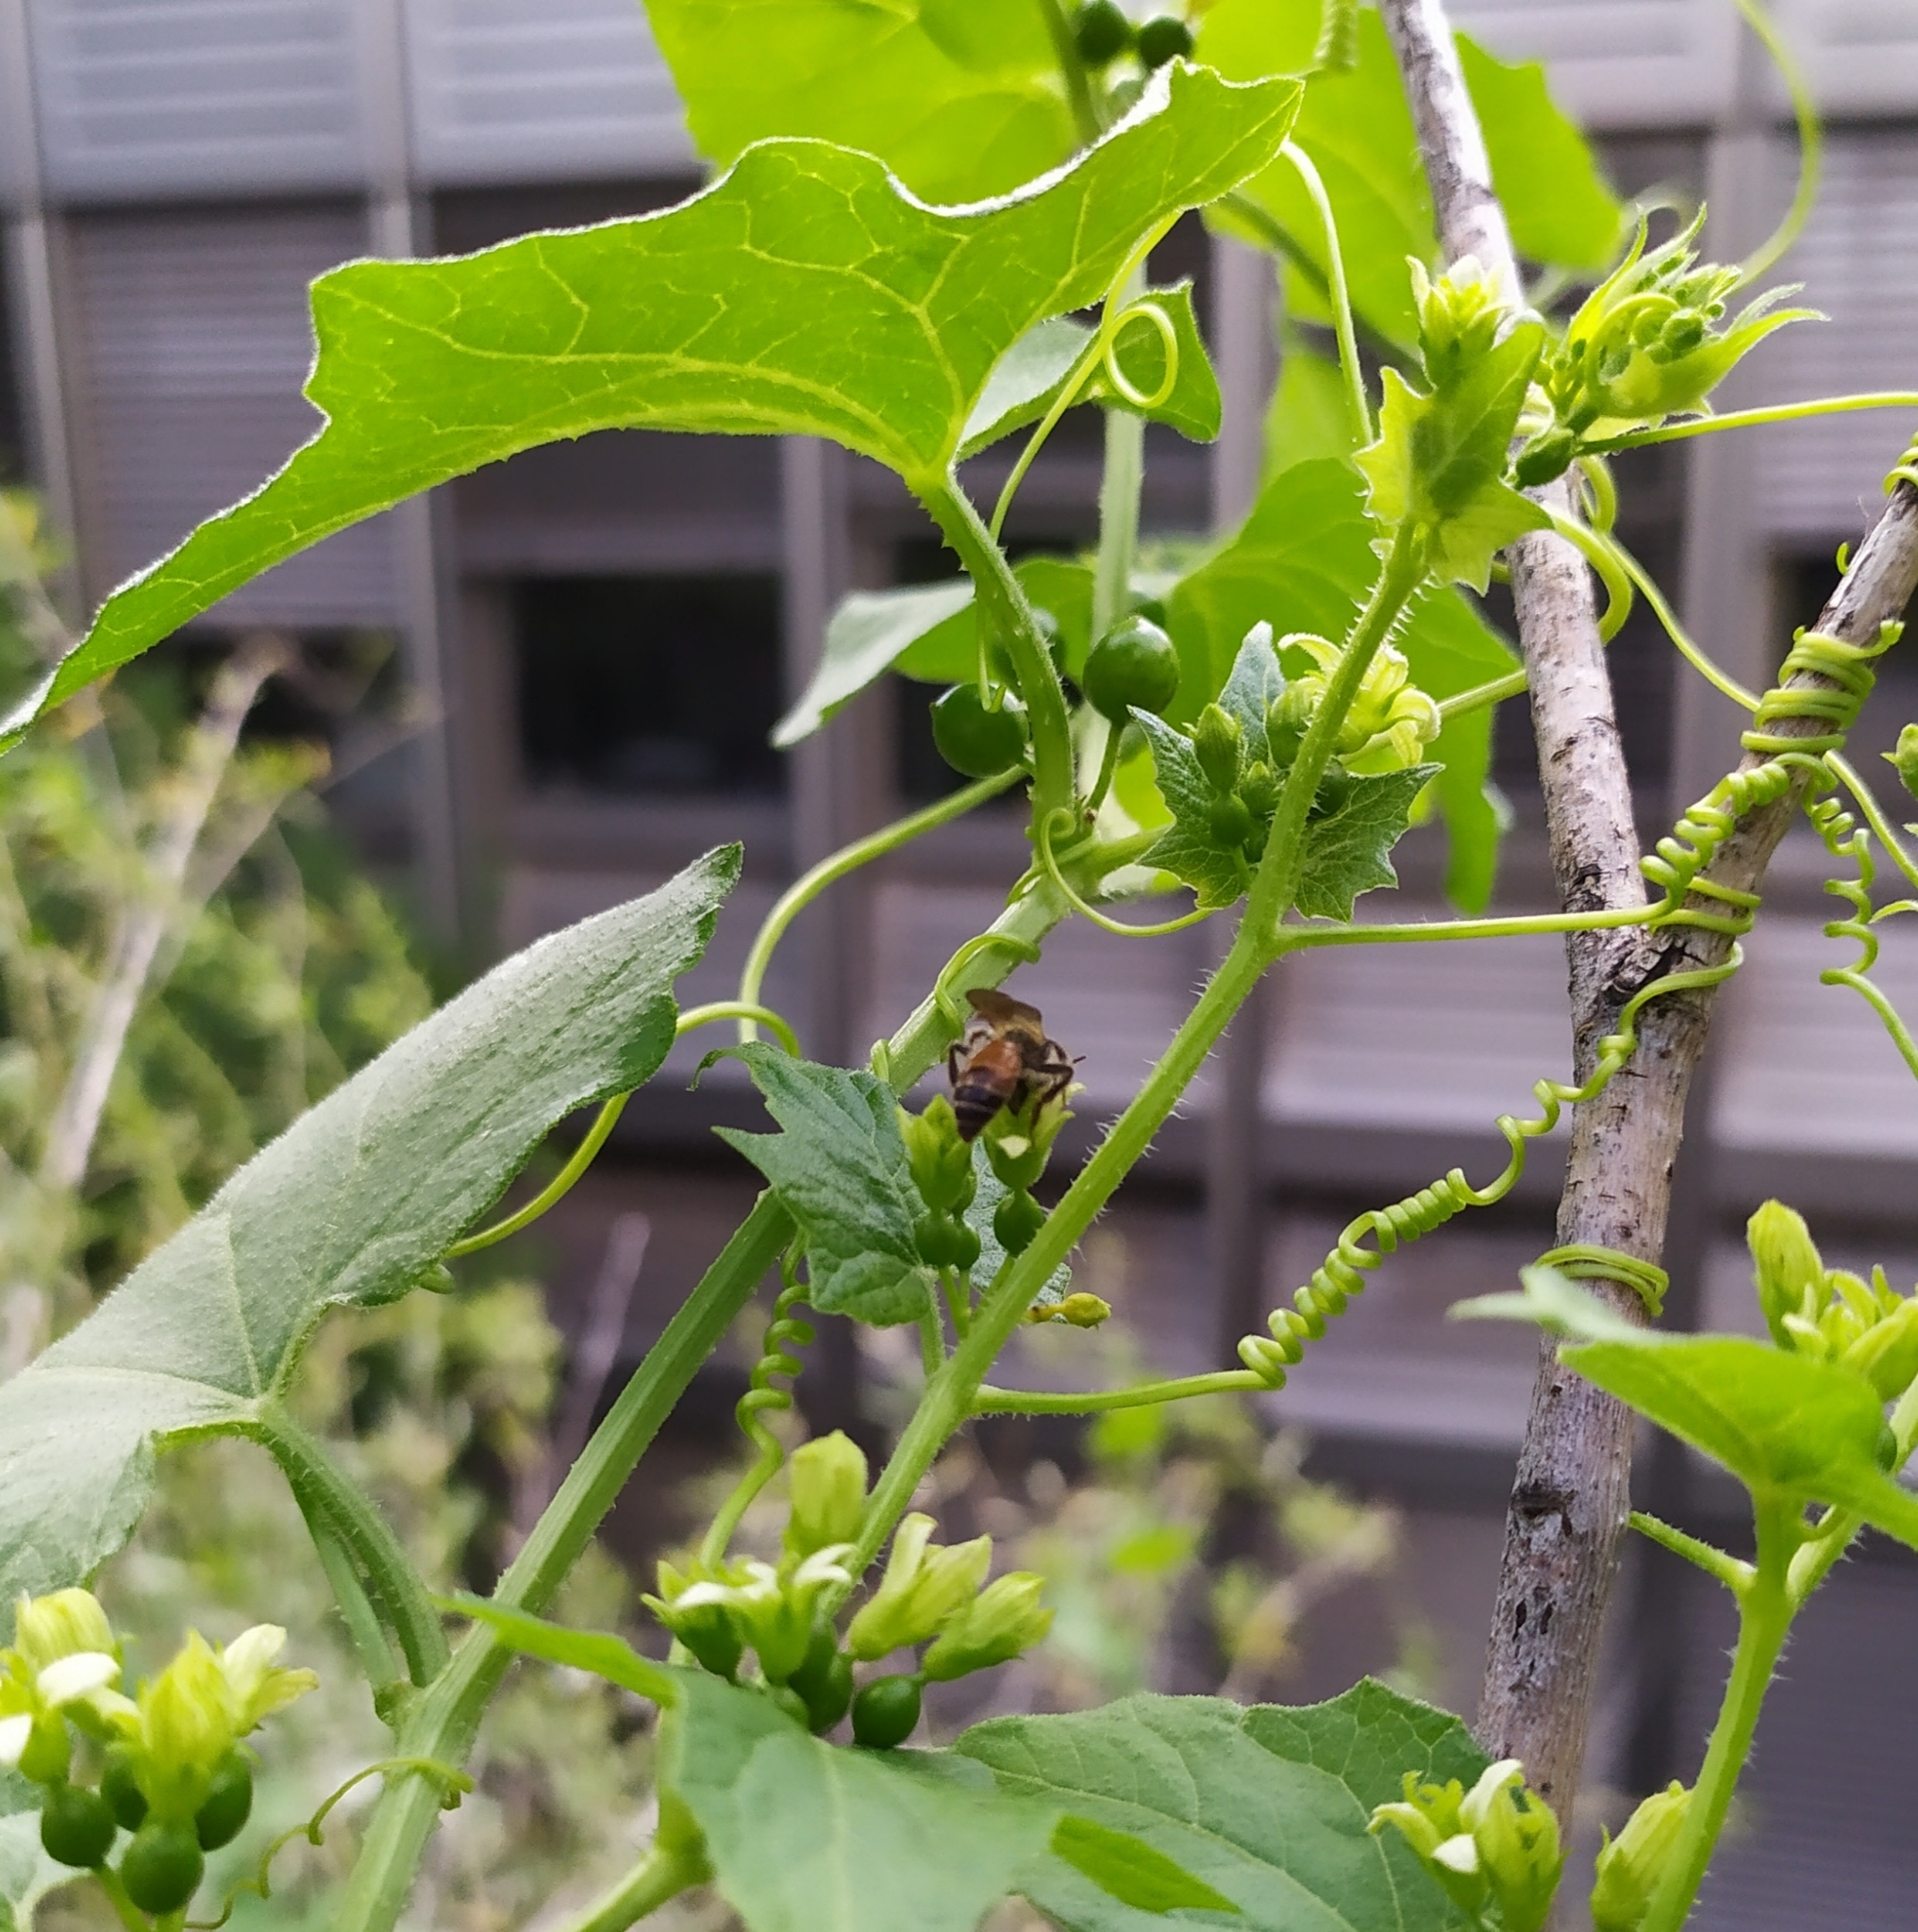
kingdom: Animalia
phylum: Arthropoda
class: Insecta
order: Hymenoptera
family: Andrenidae
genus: Andrena
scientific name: Andrena florea
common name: Bryony mining bee
